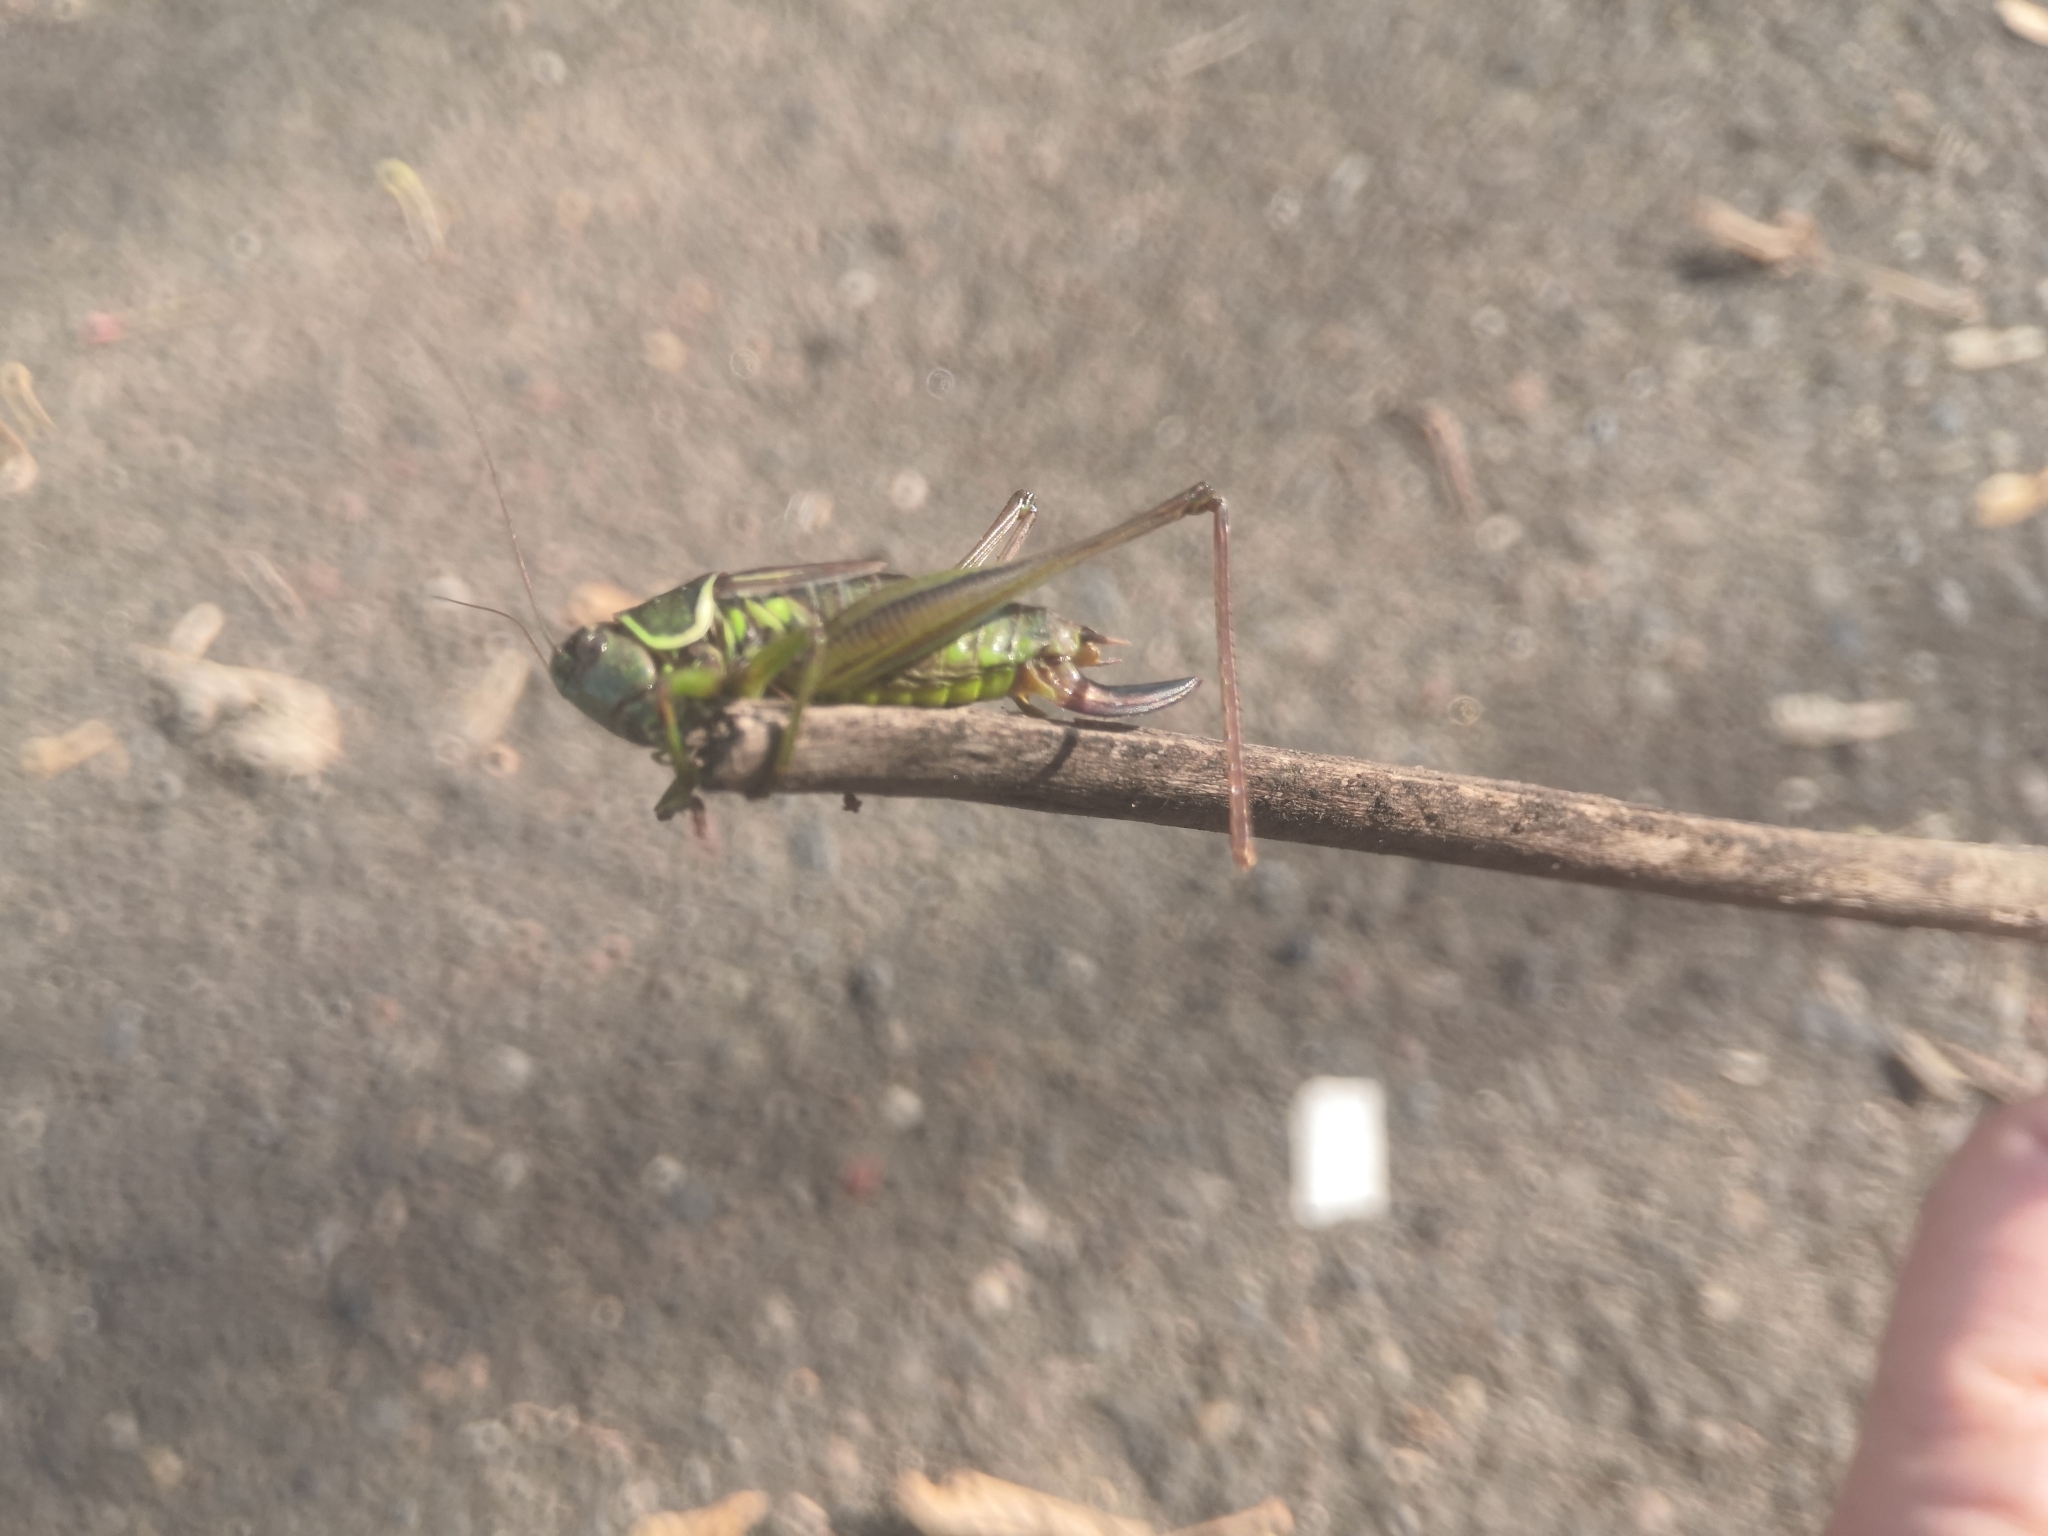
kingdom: Animalia
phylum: Arthropoda
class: Insecta
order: Orthoptera
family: Tettigoniidae
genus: Roeseliana
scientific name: Roeseliana roeselii
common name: Roesel's bush cricket
